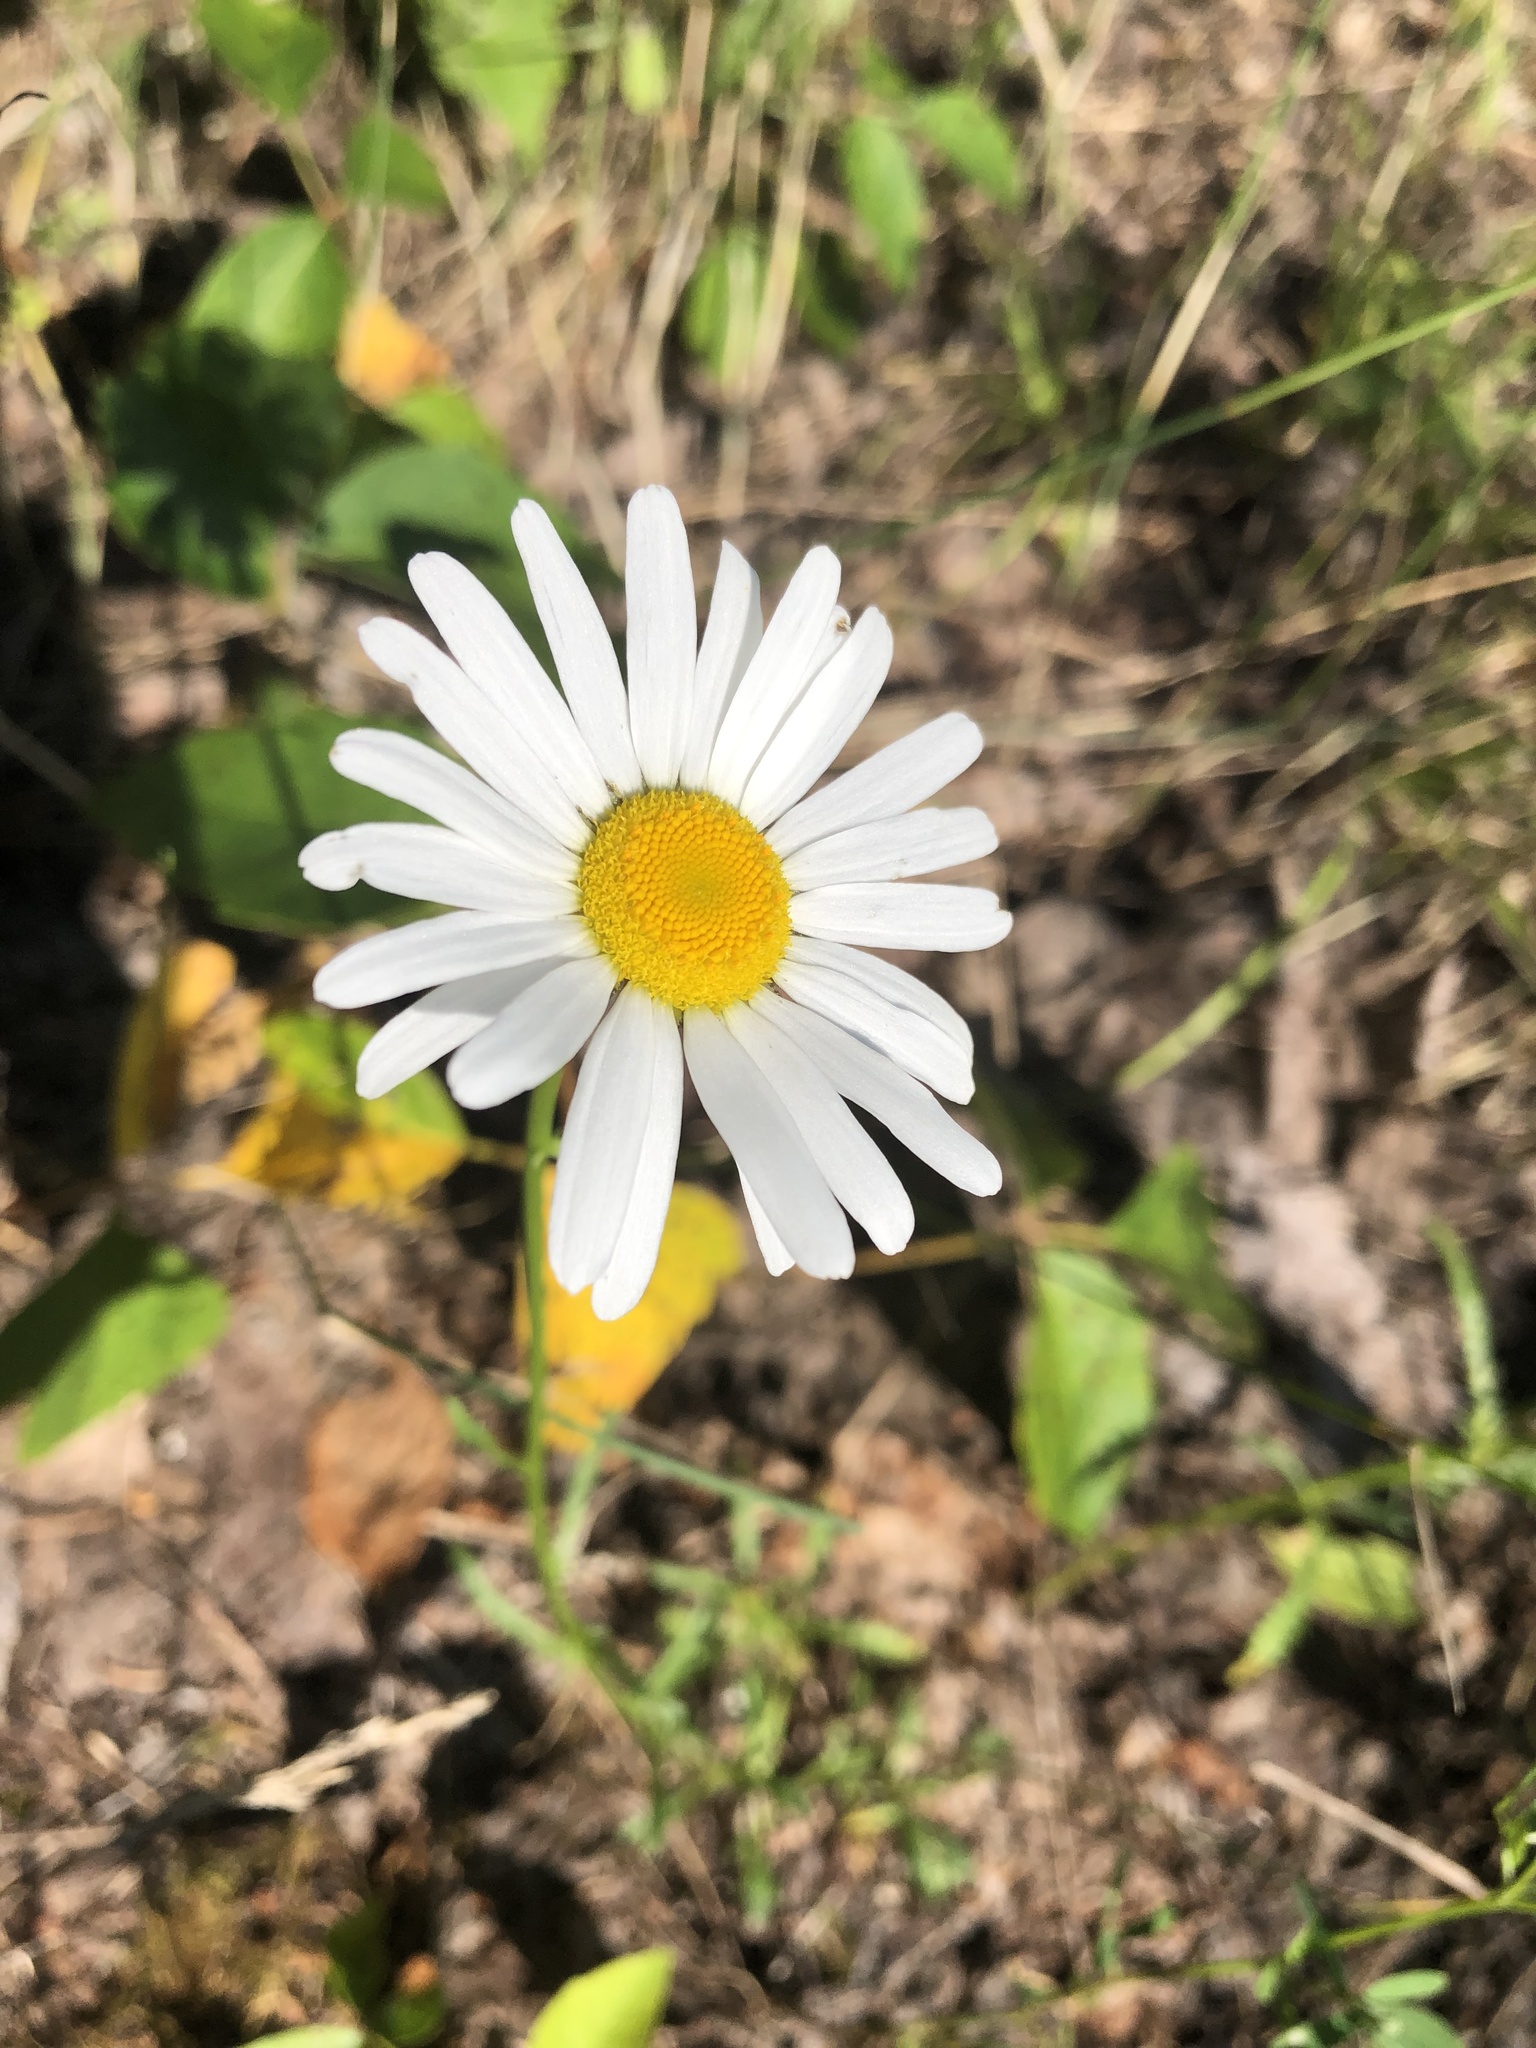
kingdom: Plantae
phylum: Tracheophyta
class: Magnoliopsida
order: Asterales
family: Asteraceae
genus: Leucanthemum
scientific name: Leucanthemum vulgare
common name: Oxeye daisy
